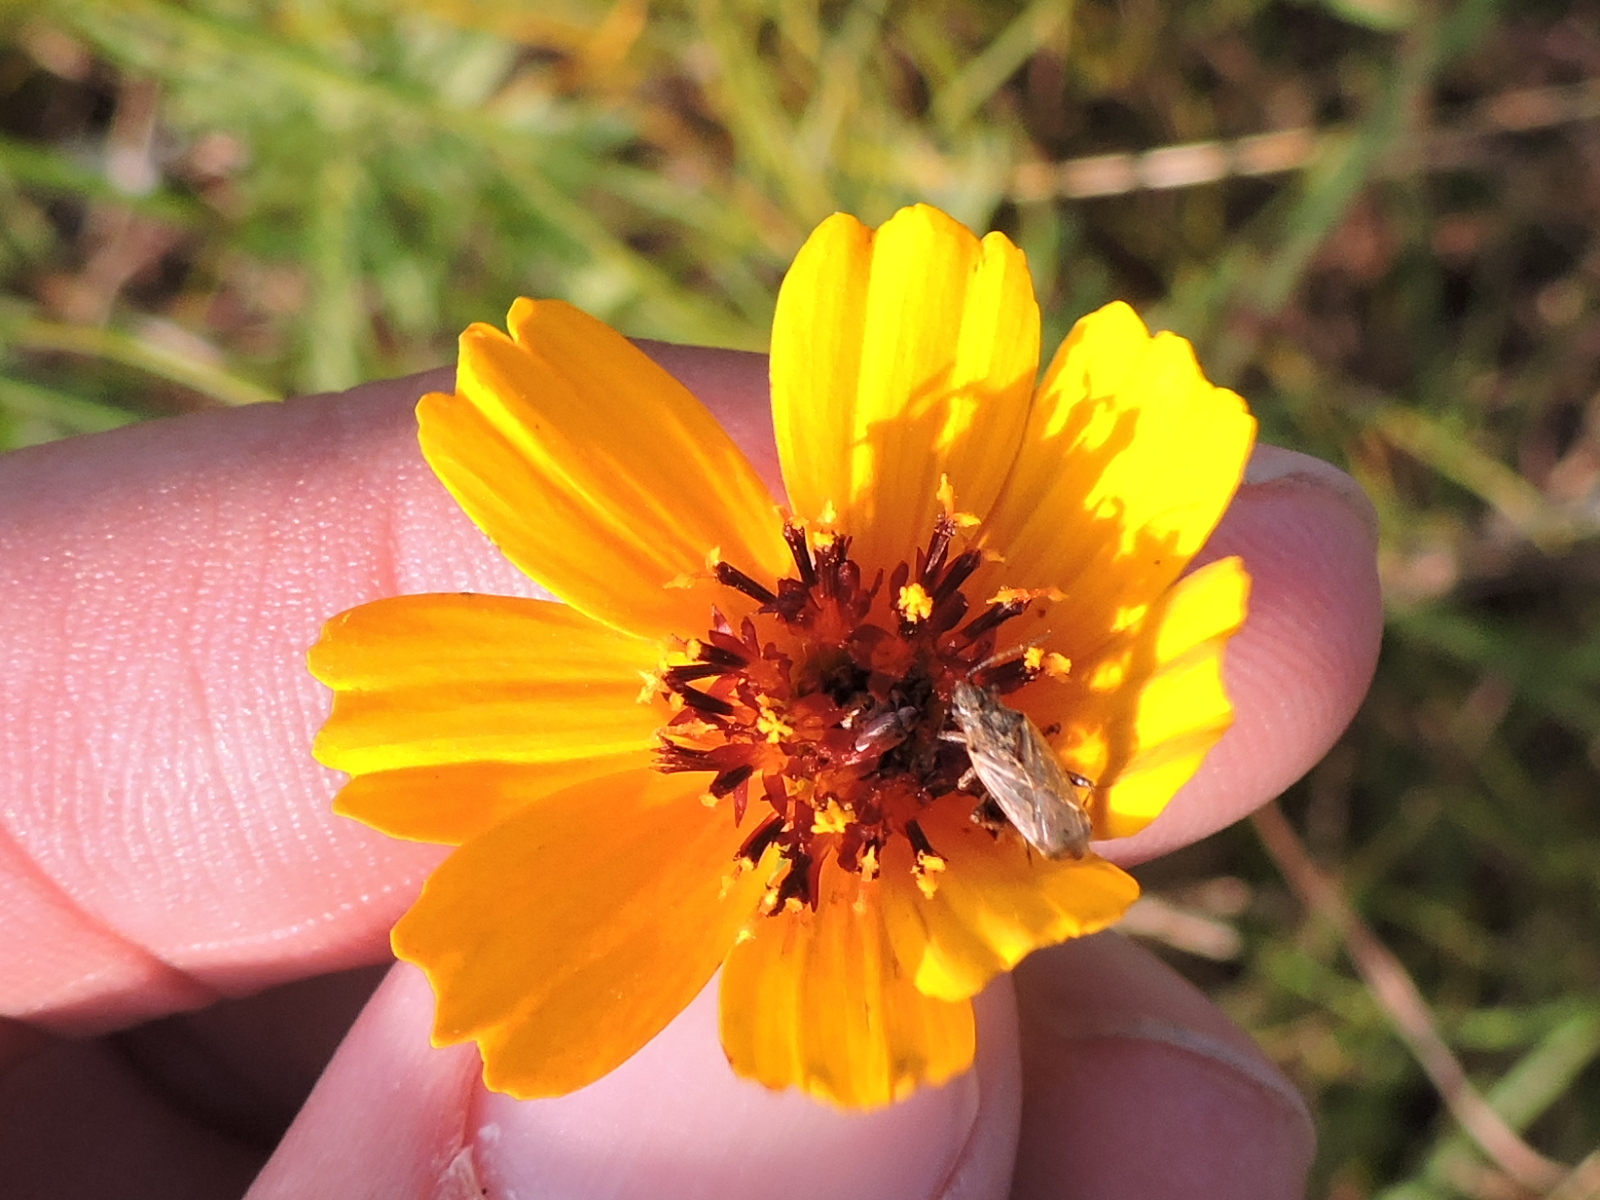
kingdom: Plantae
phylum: Tracheophyta
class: Magnoliopsida
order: Asterales
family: Asteraceae
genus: Thelesperma
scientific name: Thelesperma filifolium
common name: Stiff greenthread
